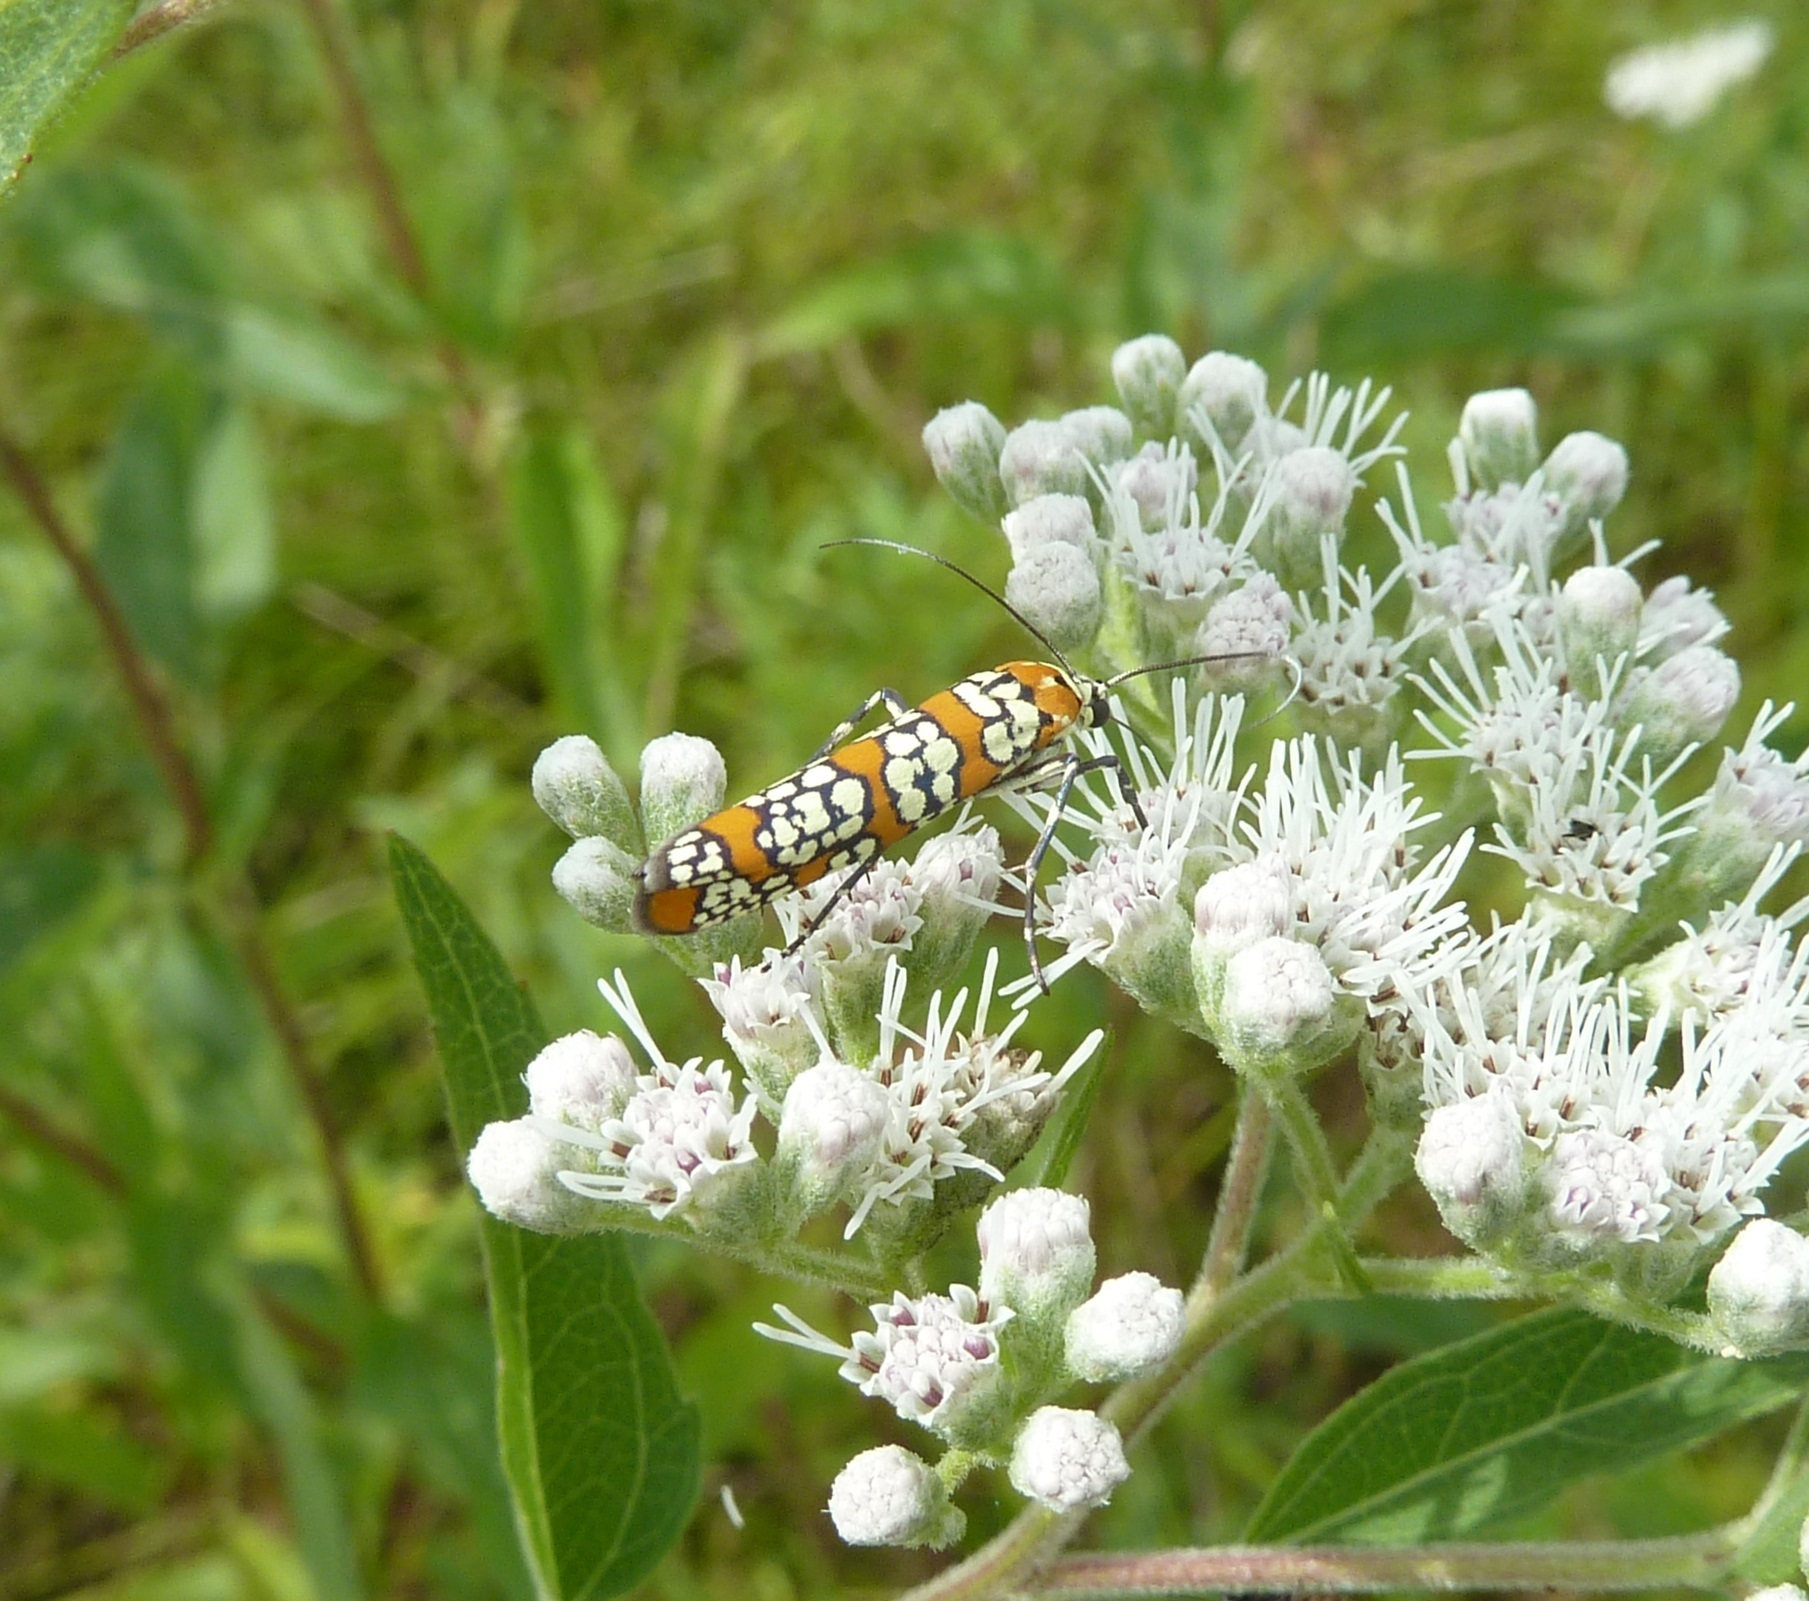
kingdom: Animalia
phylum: Arthropoda
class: Insecta
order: Lepidoptera
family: Attevidae
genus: Atteva
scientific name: Atteva punctella
